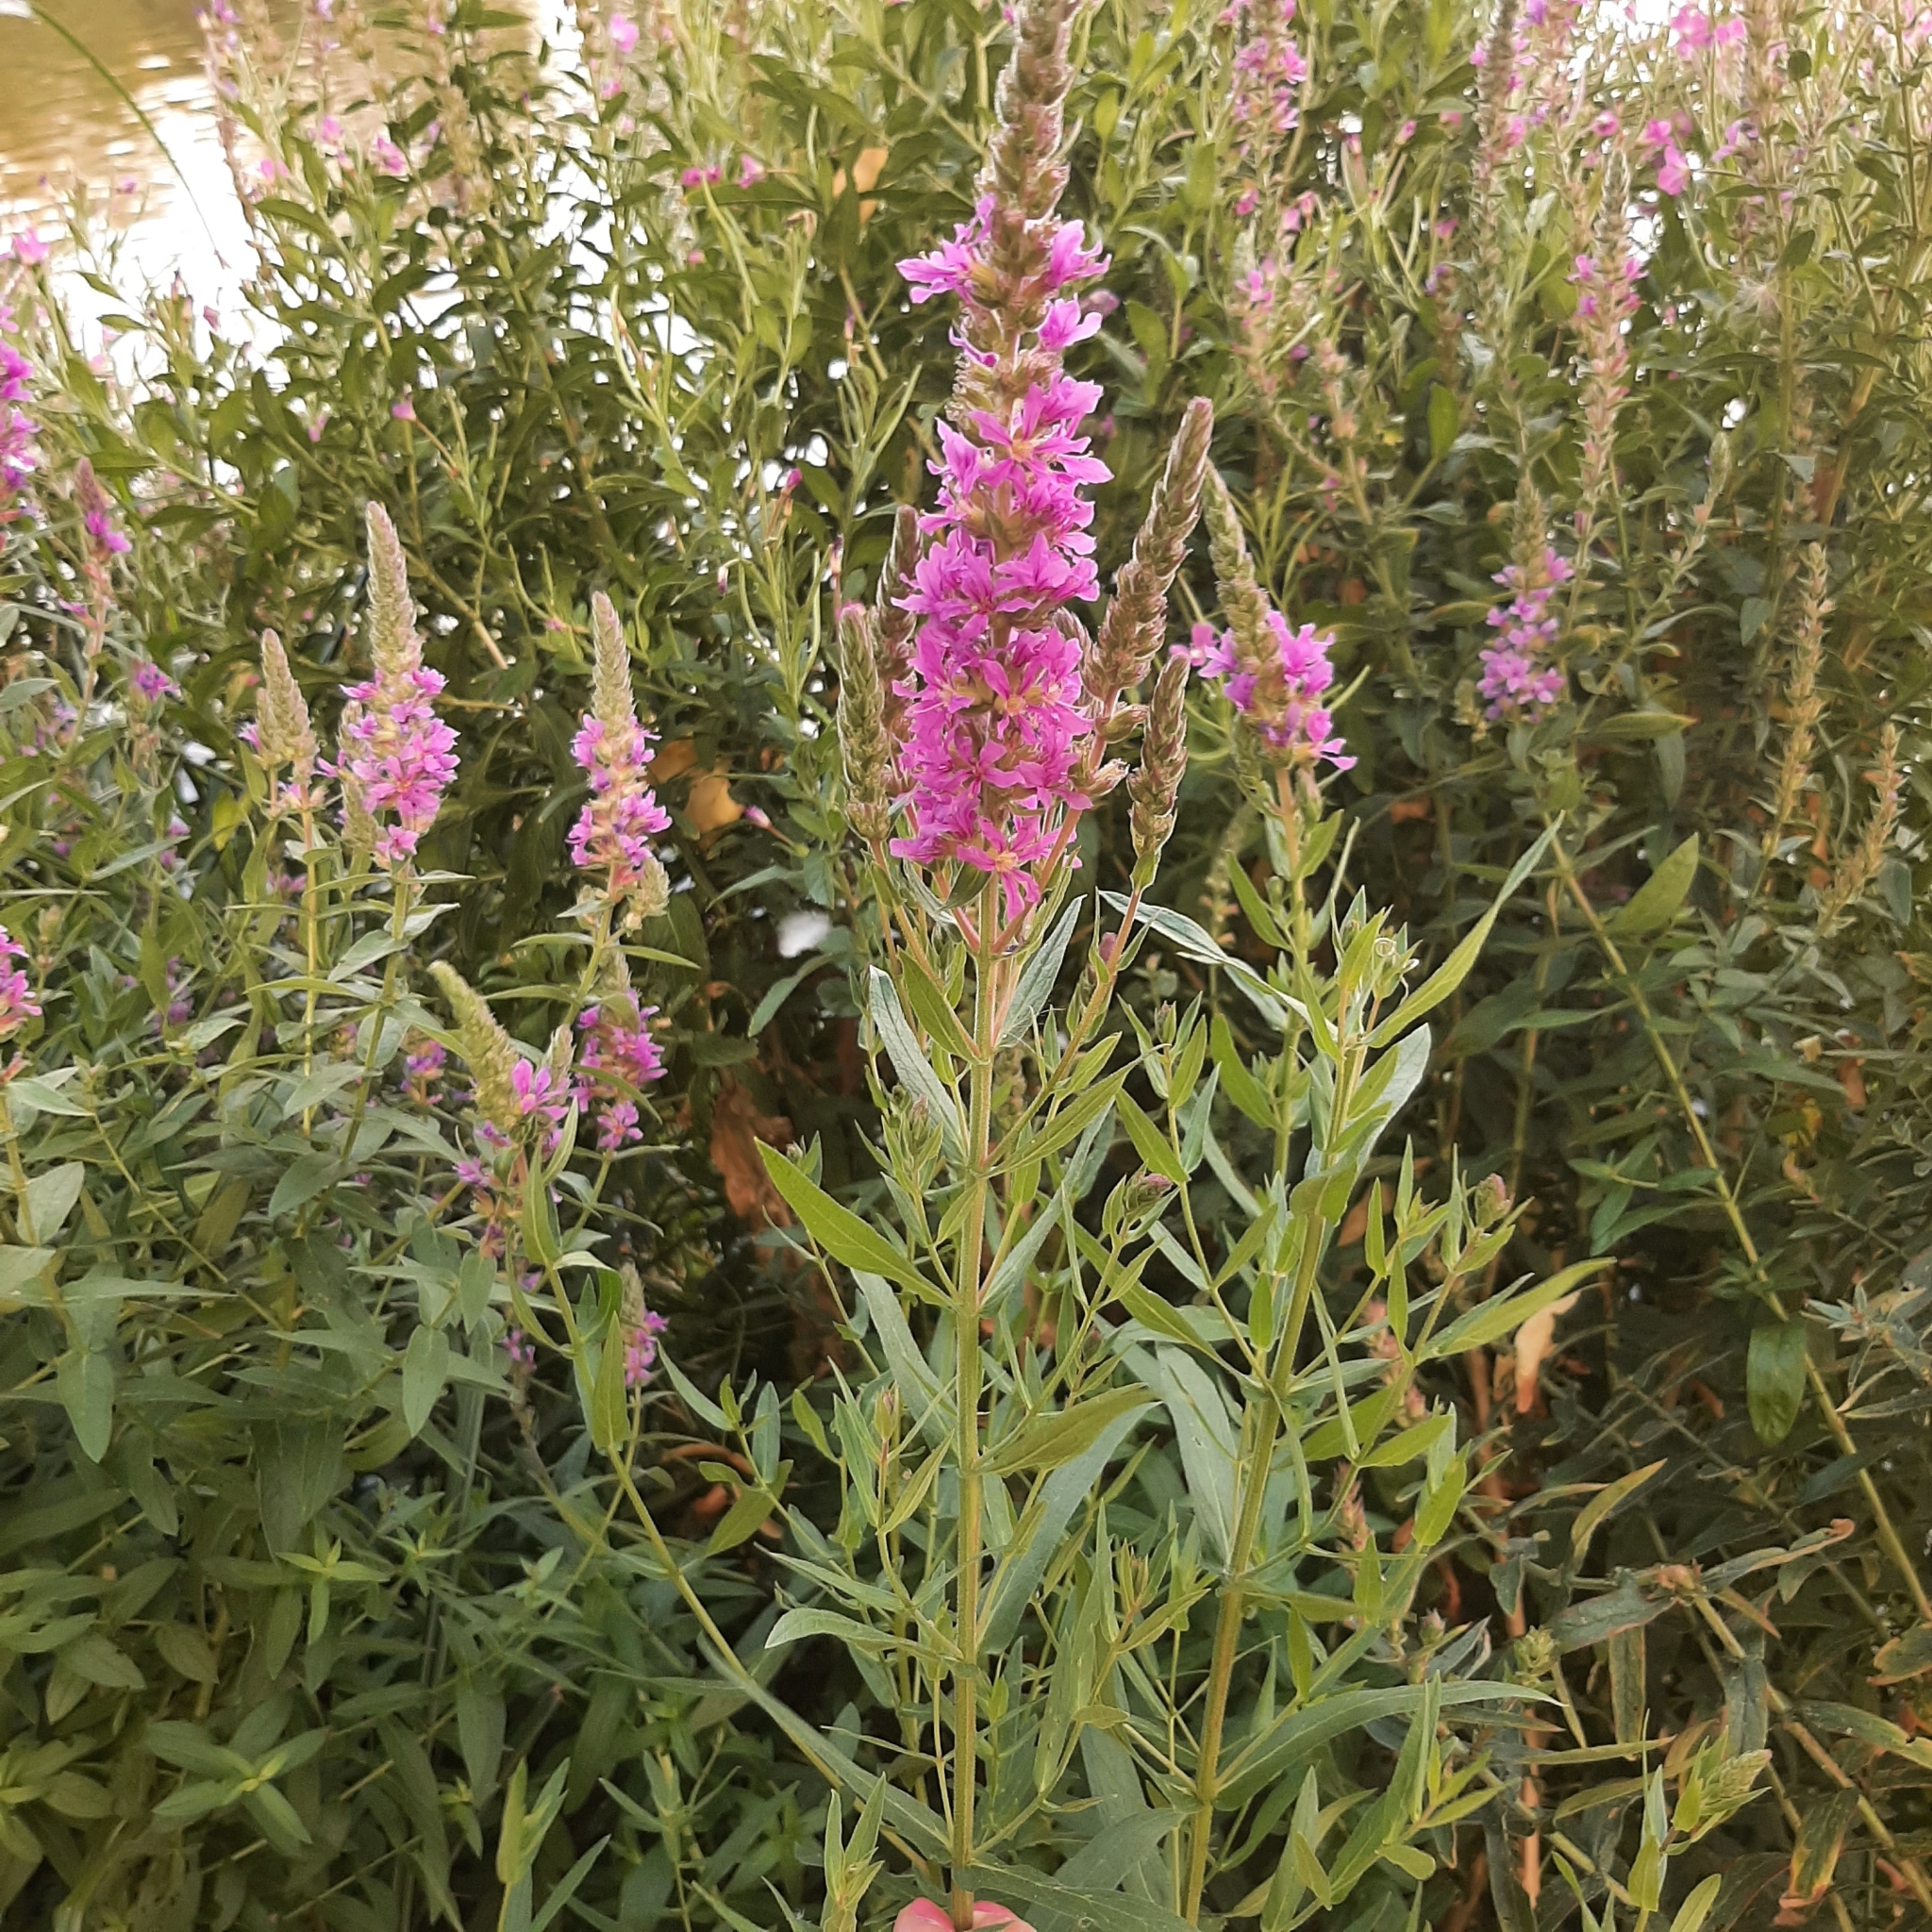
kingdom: Plantae
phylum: Tracheophyta
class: Magnoliopsida
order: Myrtales
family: Lythraceae
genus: Lythrum
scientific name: Lythrum salicaria
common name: Purple loosestrife
